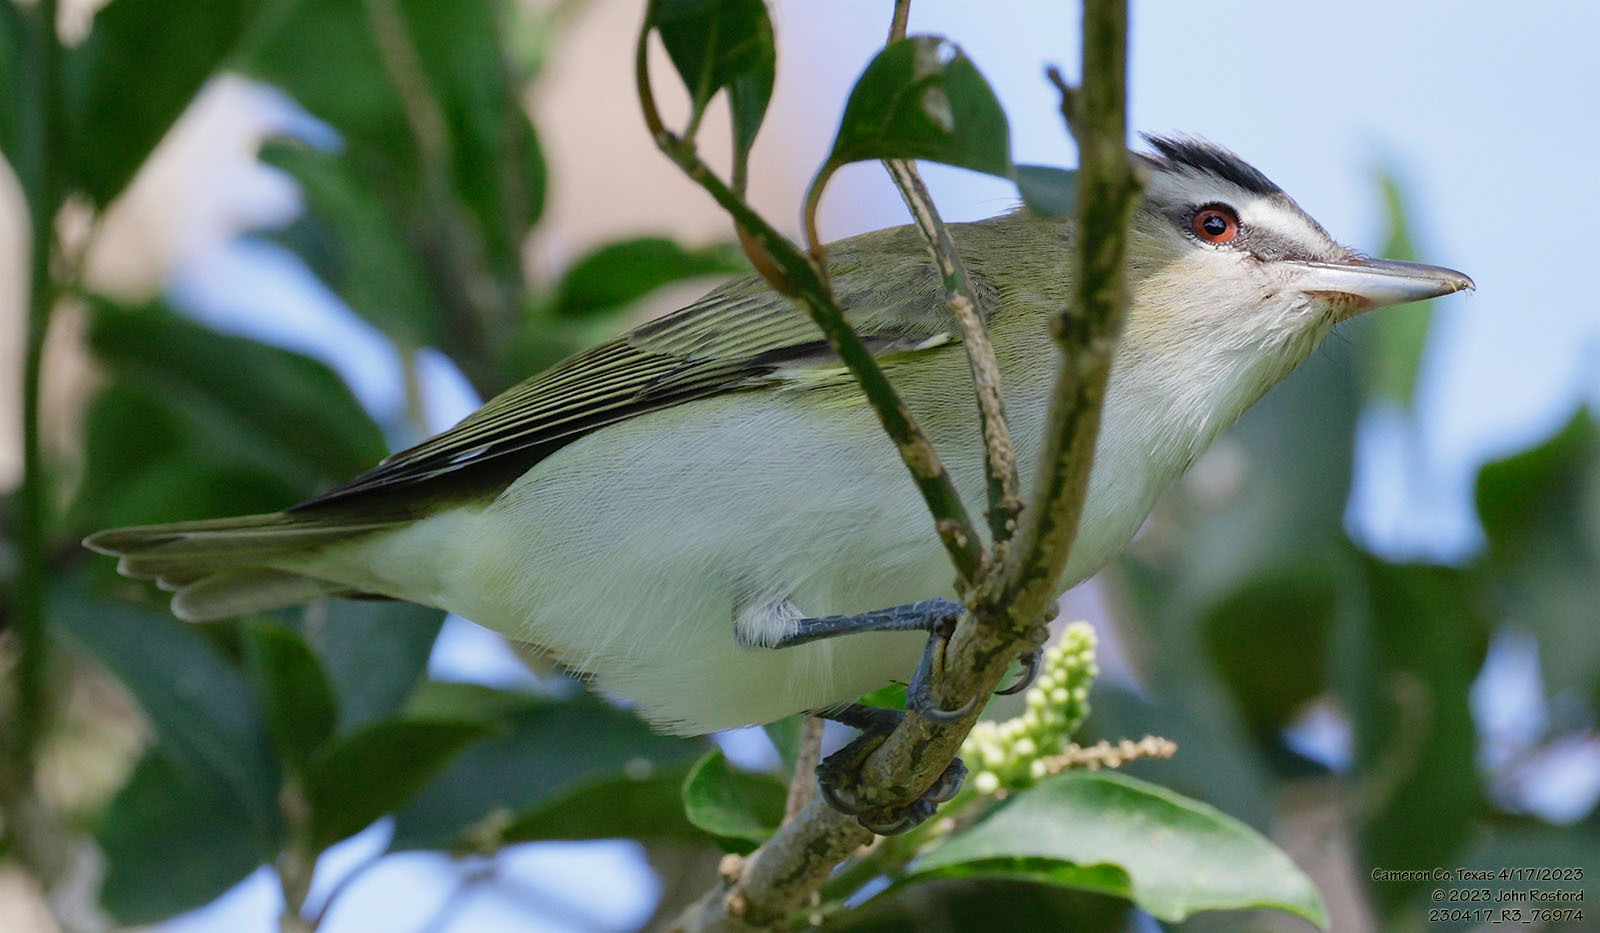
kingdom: Animalia
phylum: Chordata
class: Aves
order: Passeriformes
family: Vireonidae
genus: Vireo
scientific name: Vireo olivaceus
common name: Red-eyed vireo
